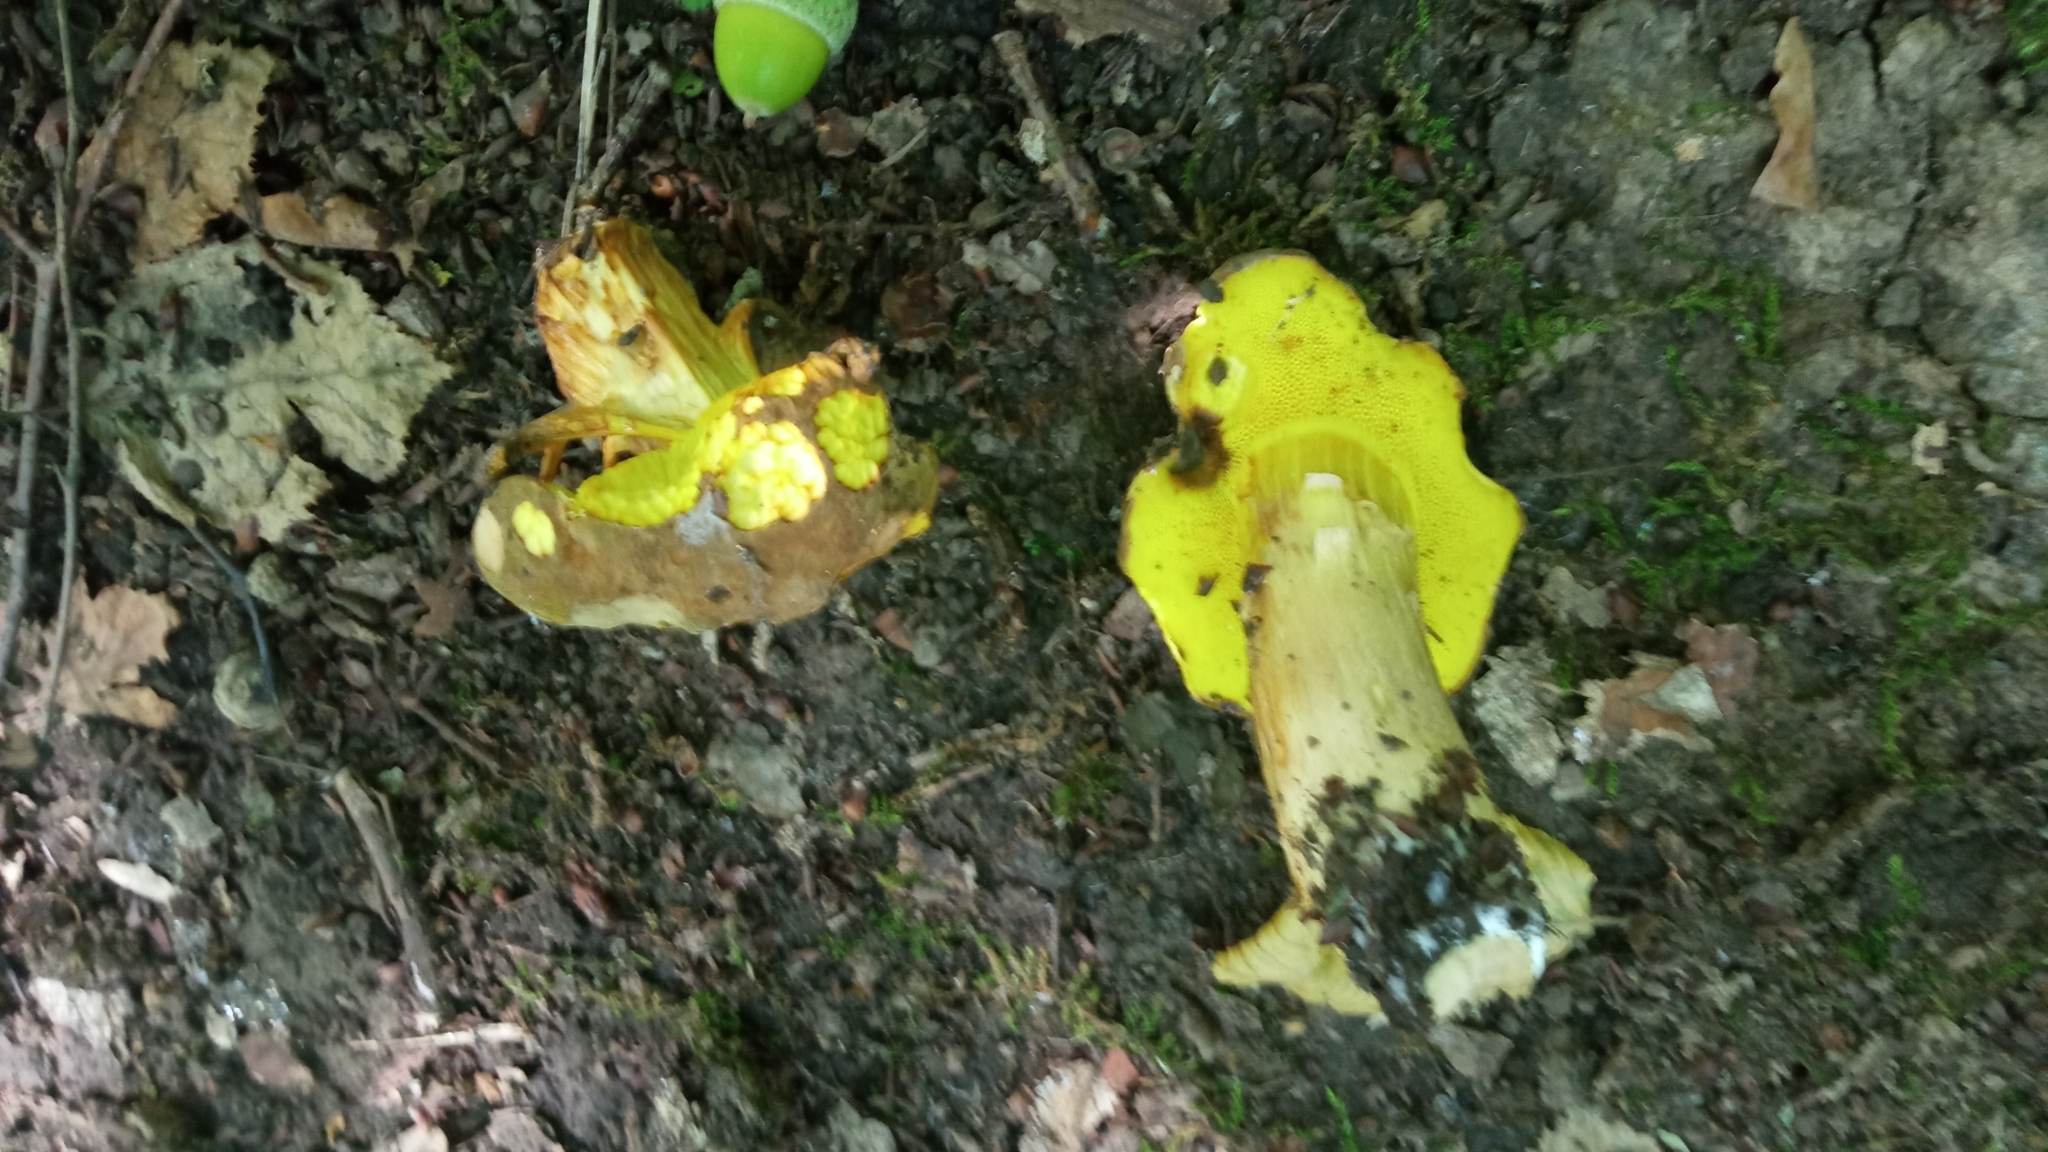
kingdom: Fungi
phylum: Basidiomycota
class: Agaricomycetes
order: Boletales
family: Boletaceae
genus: Xerocomus
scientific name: Xerocomus subtomentosus
